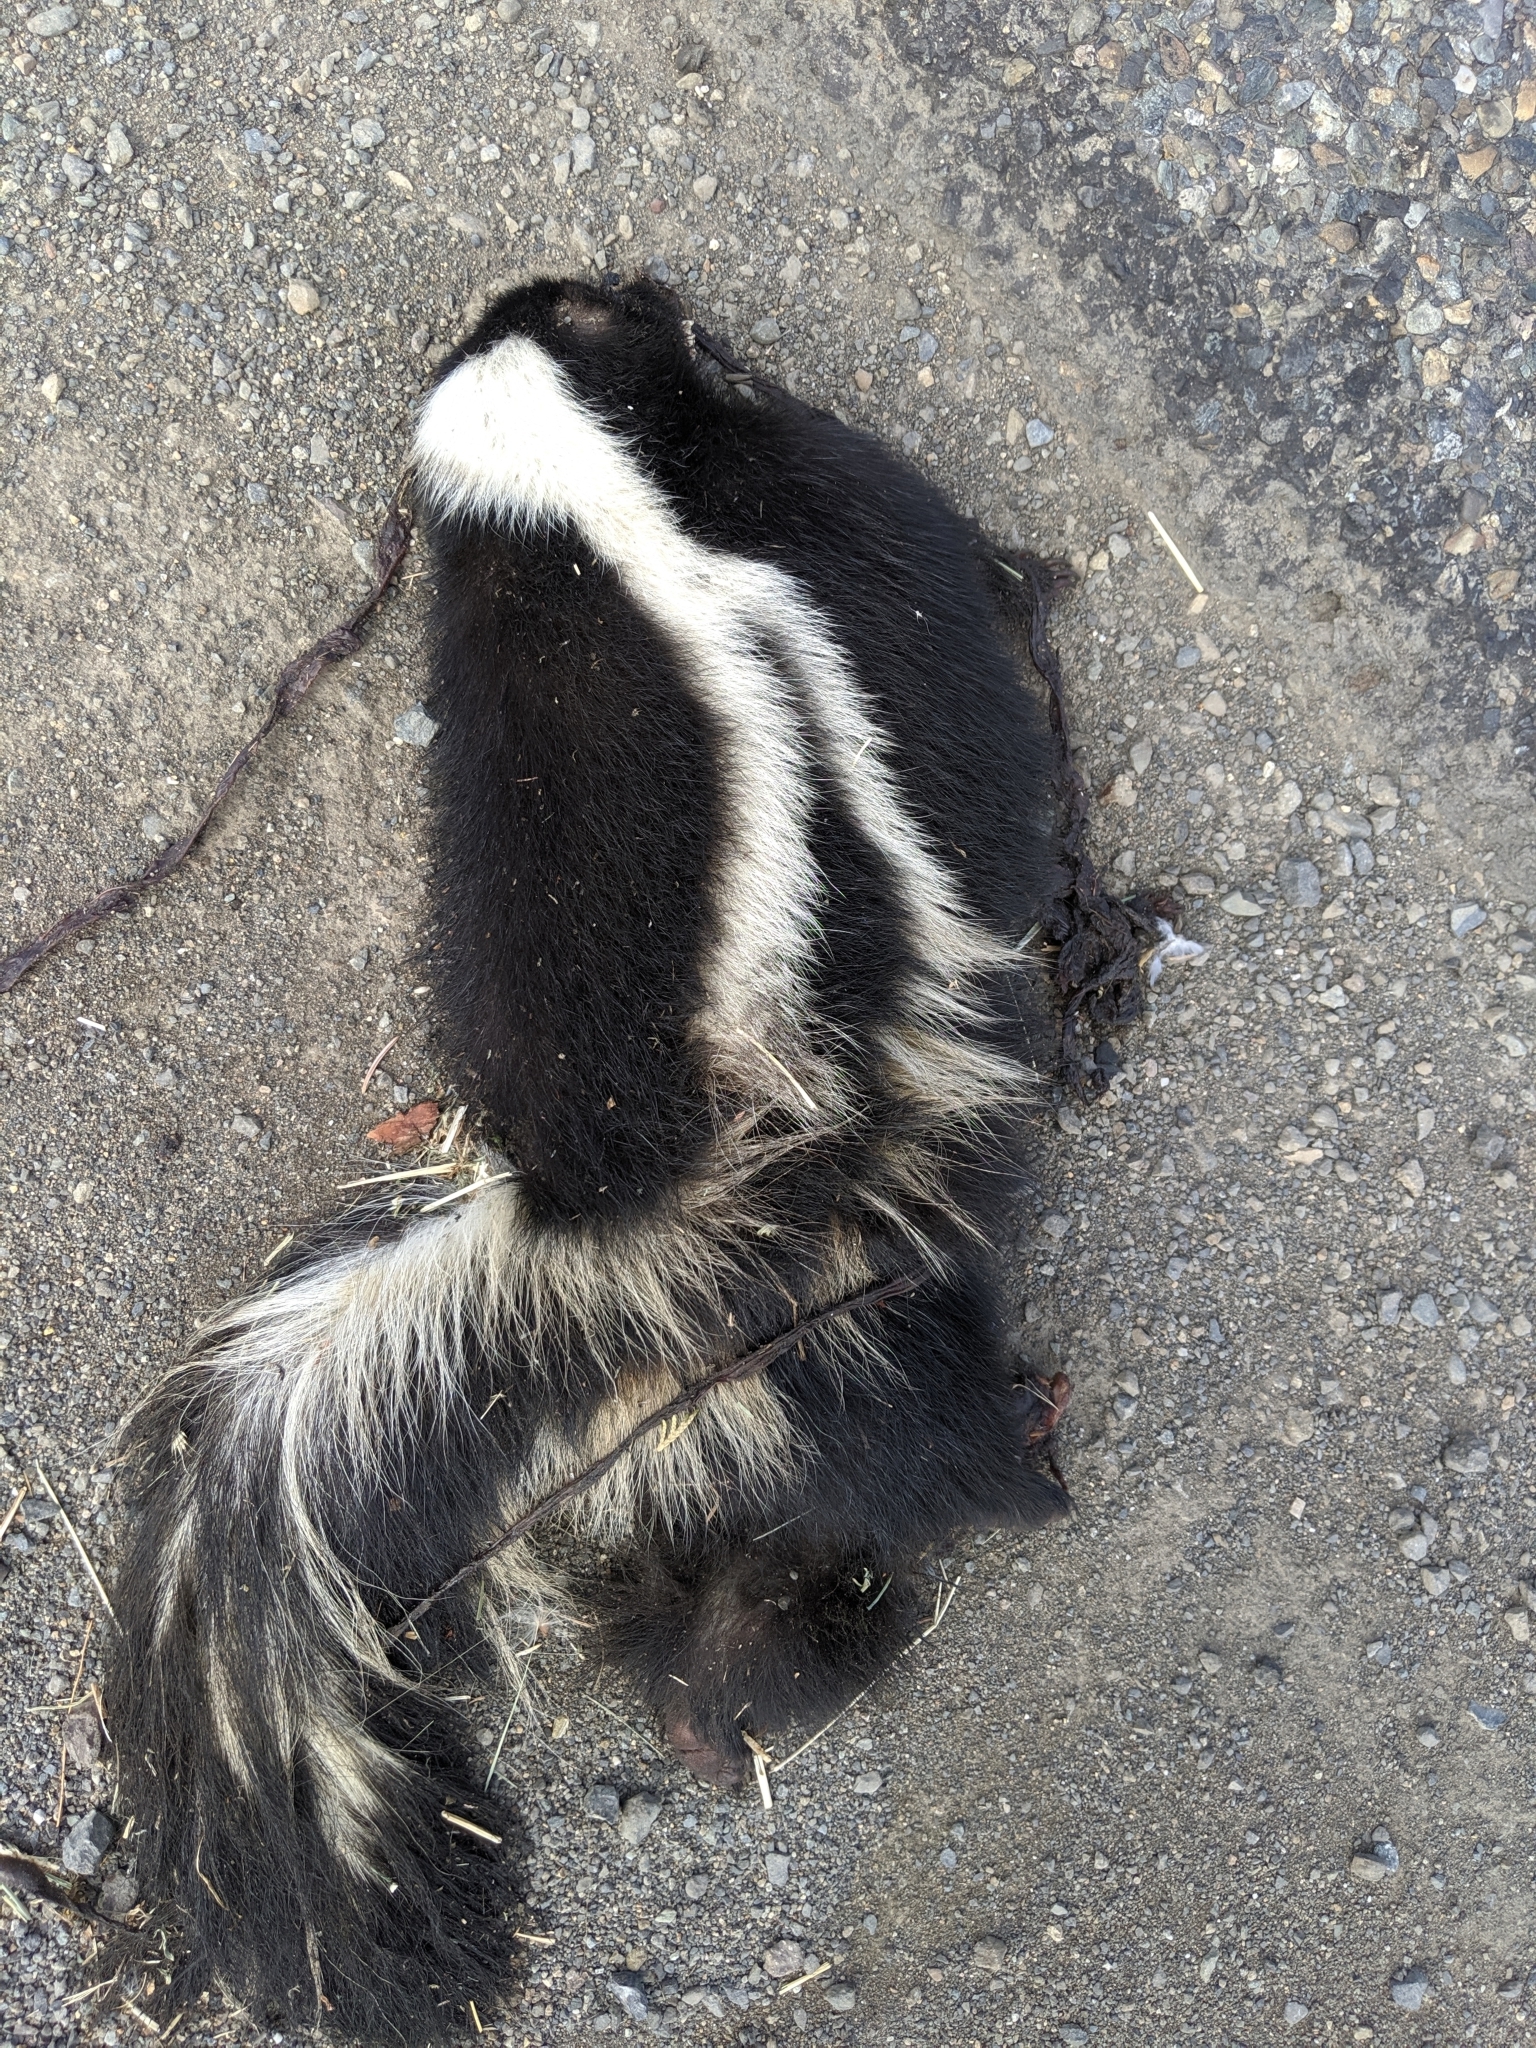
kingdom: Animalia
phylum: Chordata
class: Mammalia
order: Carnivora
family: Mephitidae
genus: Mephitis
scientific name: Mephitis mephitis
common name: Striped skunk
